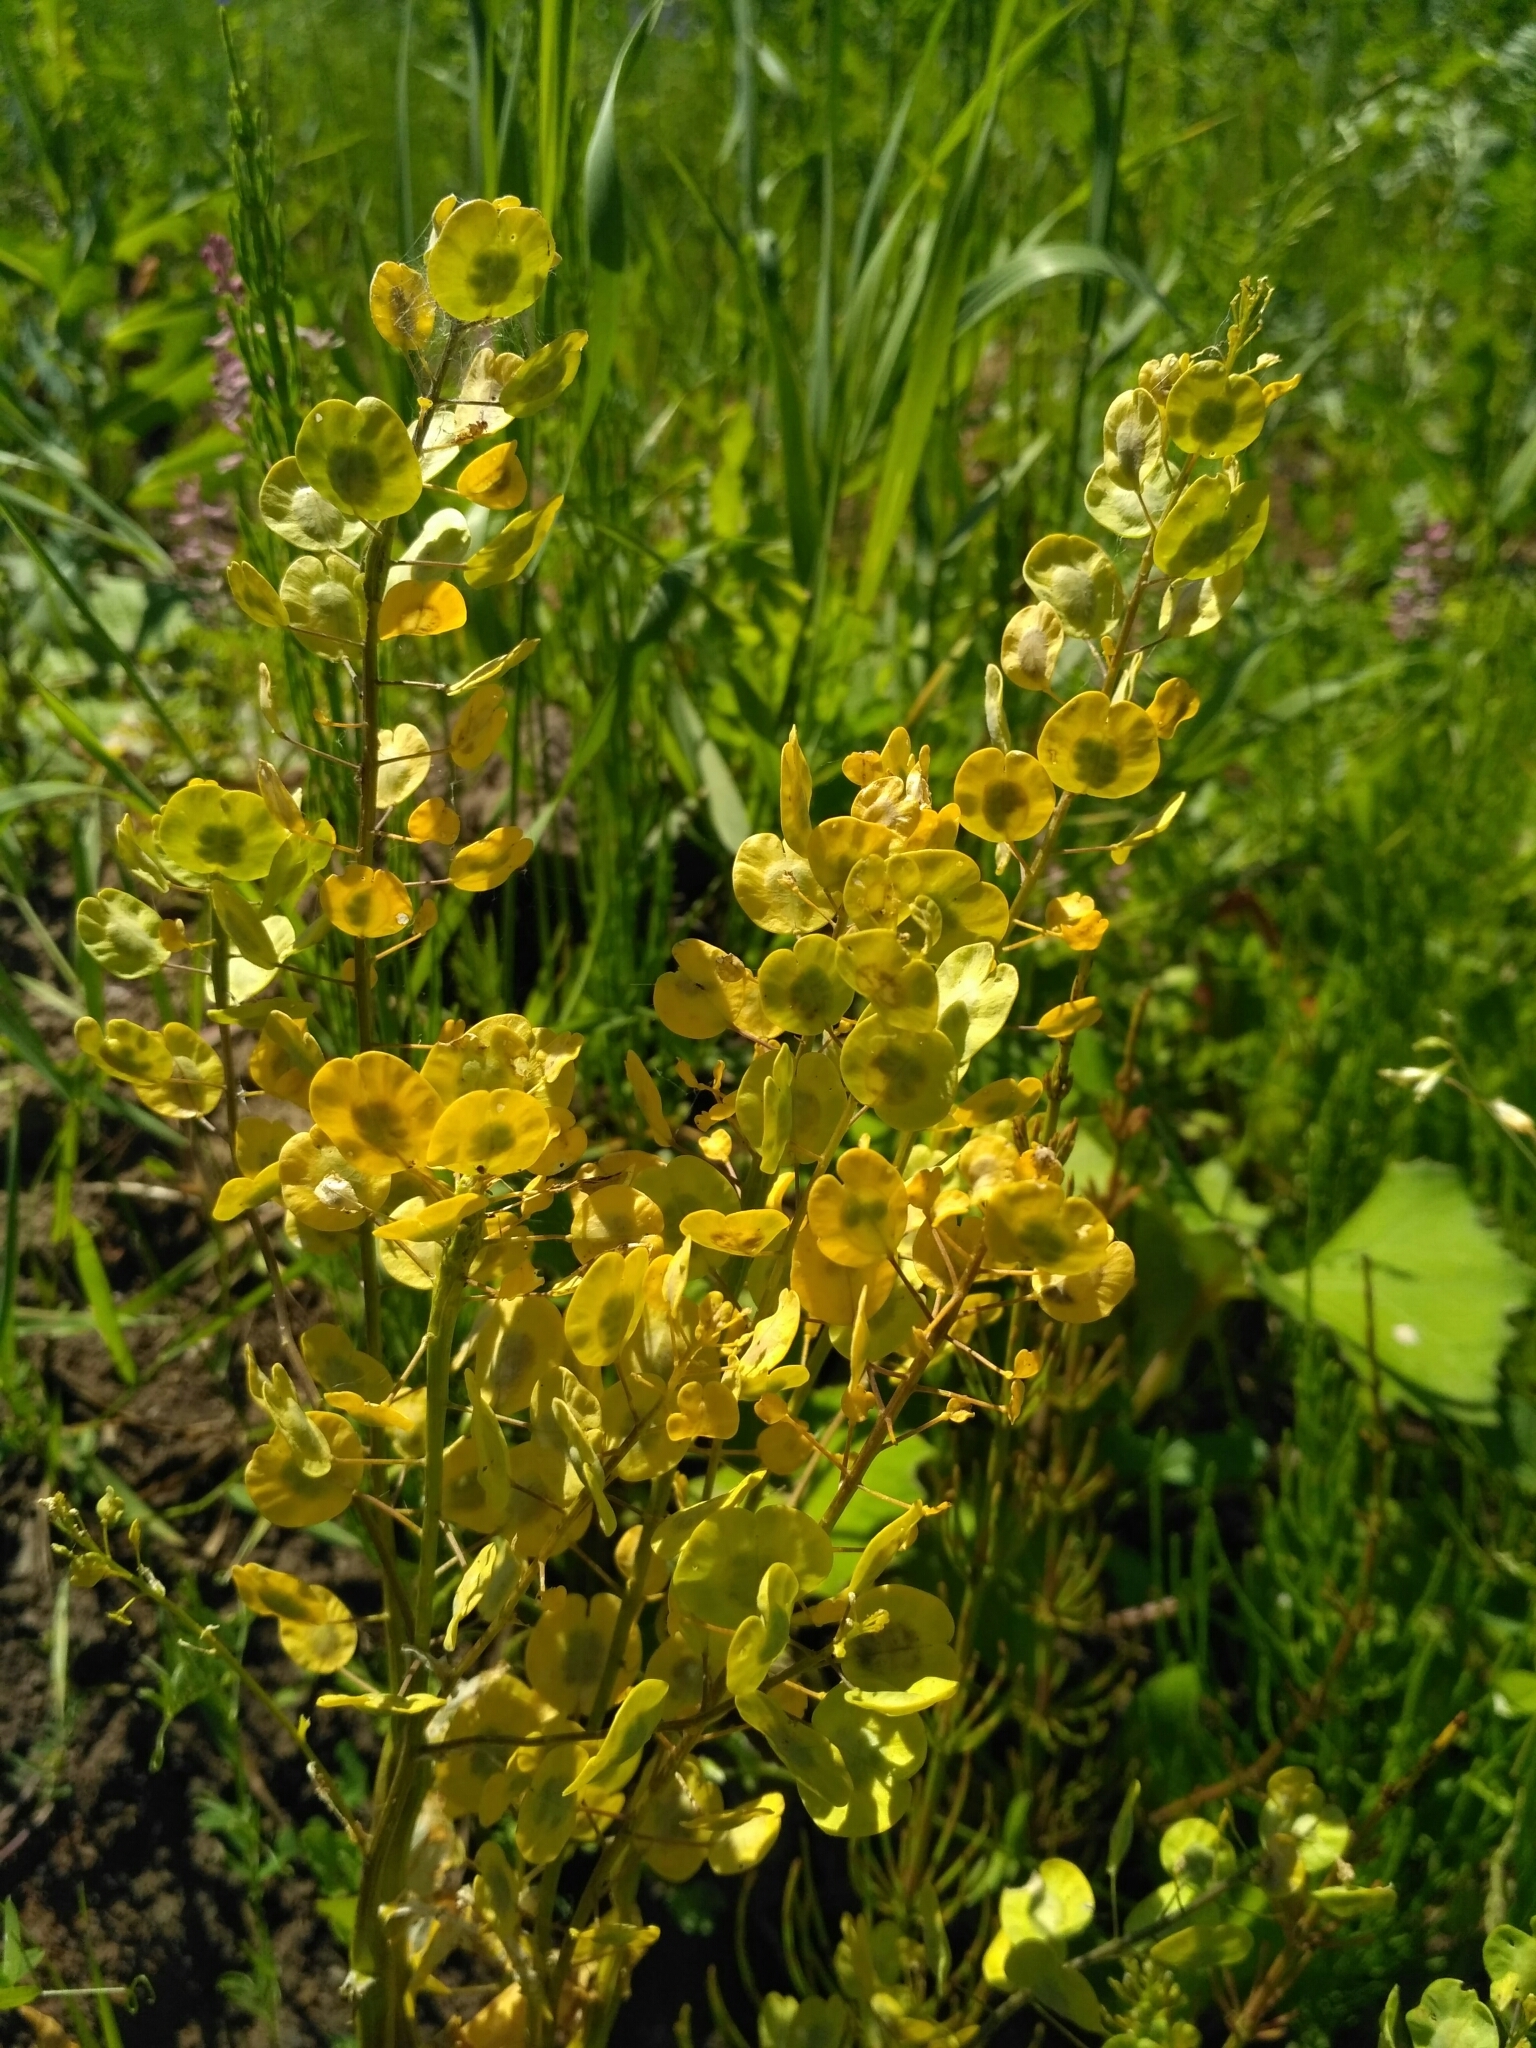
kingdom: Plantae
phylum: Tracheophyta
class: Magnoliopsida
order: Brassicales
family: Brassicaceae
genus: Thlaspi
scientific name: Thlaspi arvense
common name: Field pennycress
